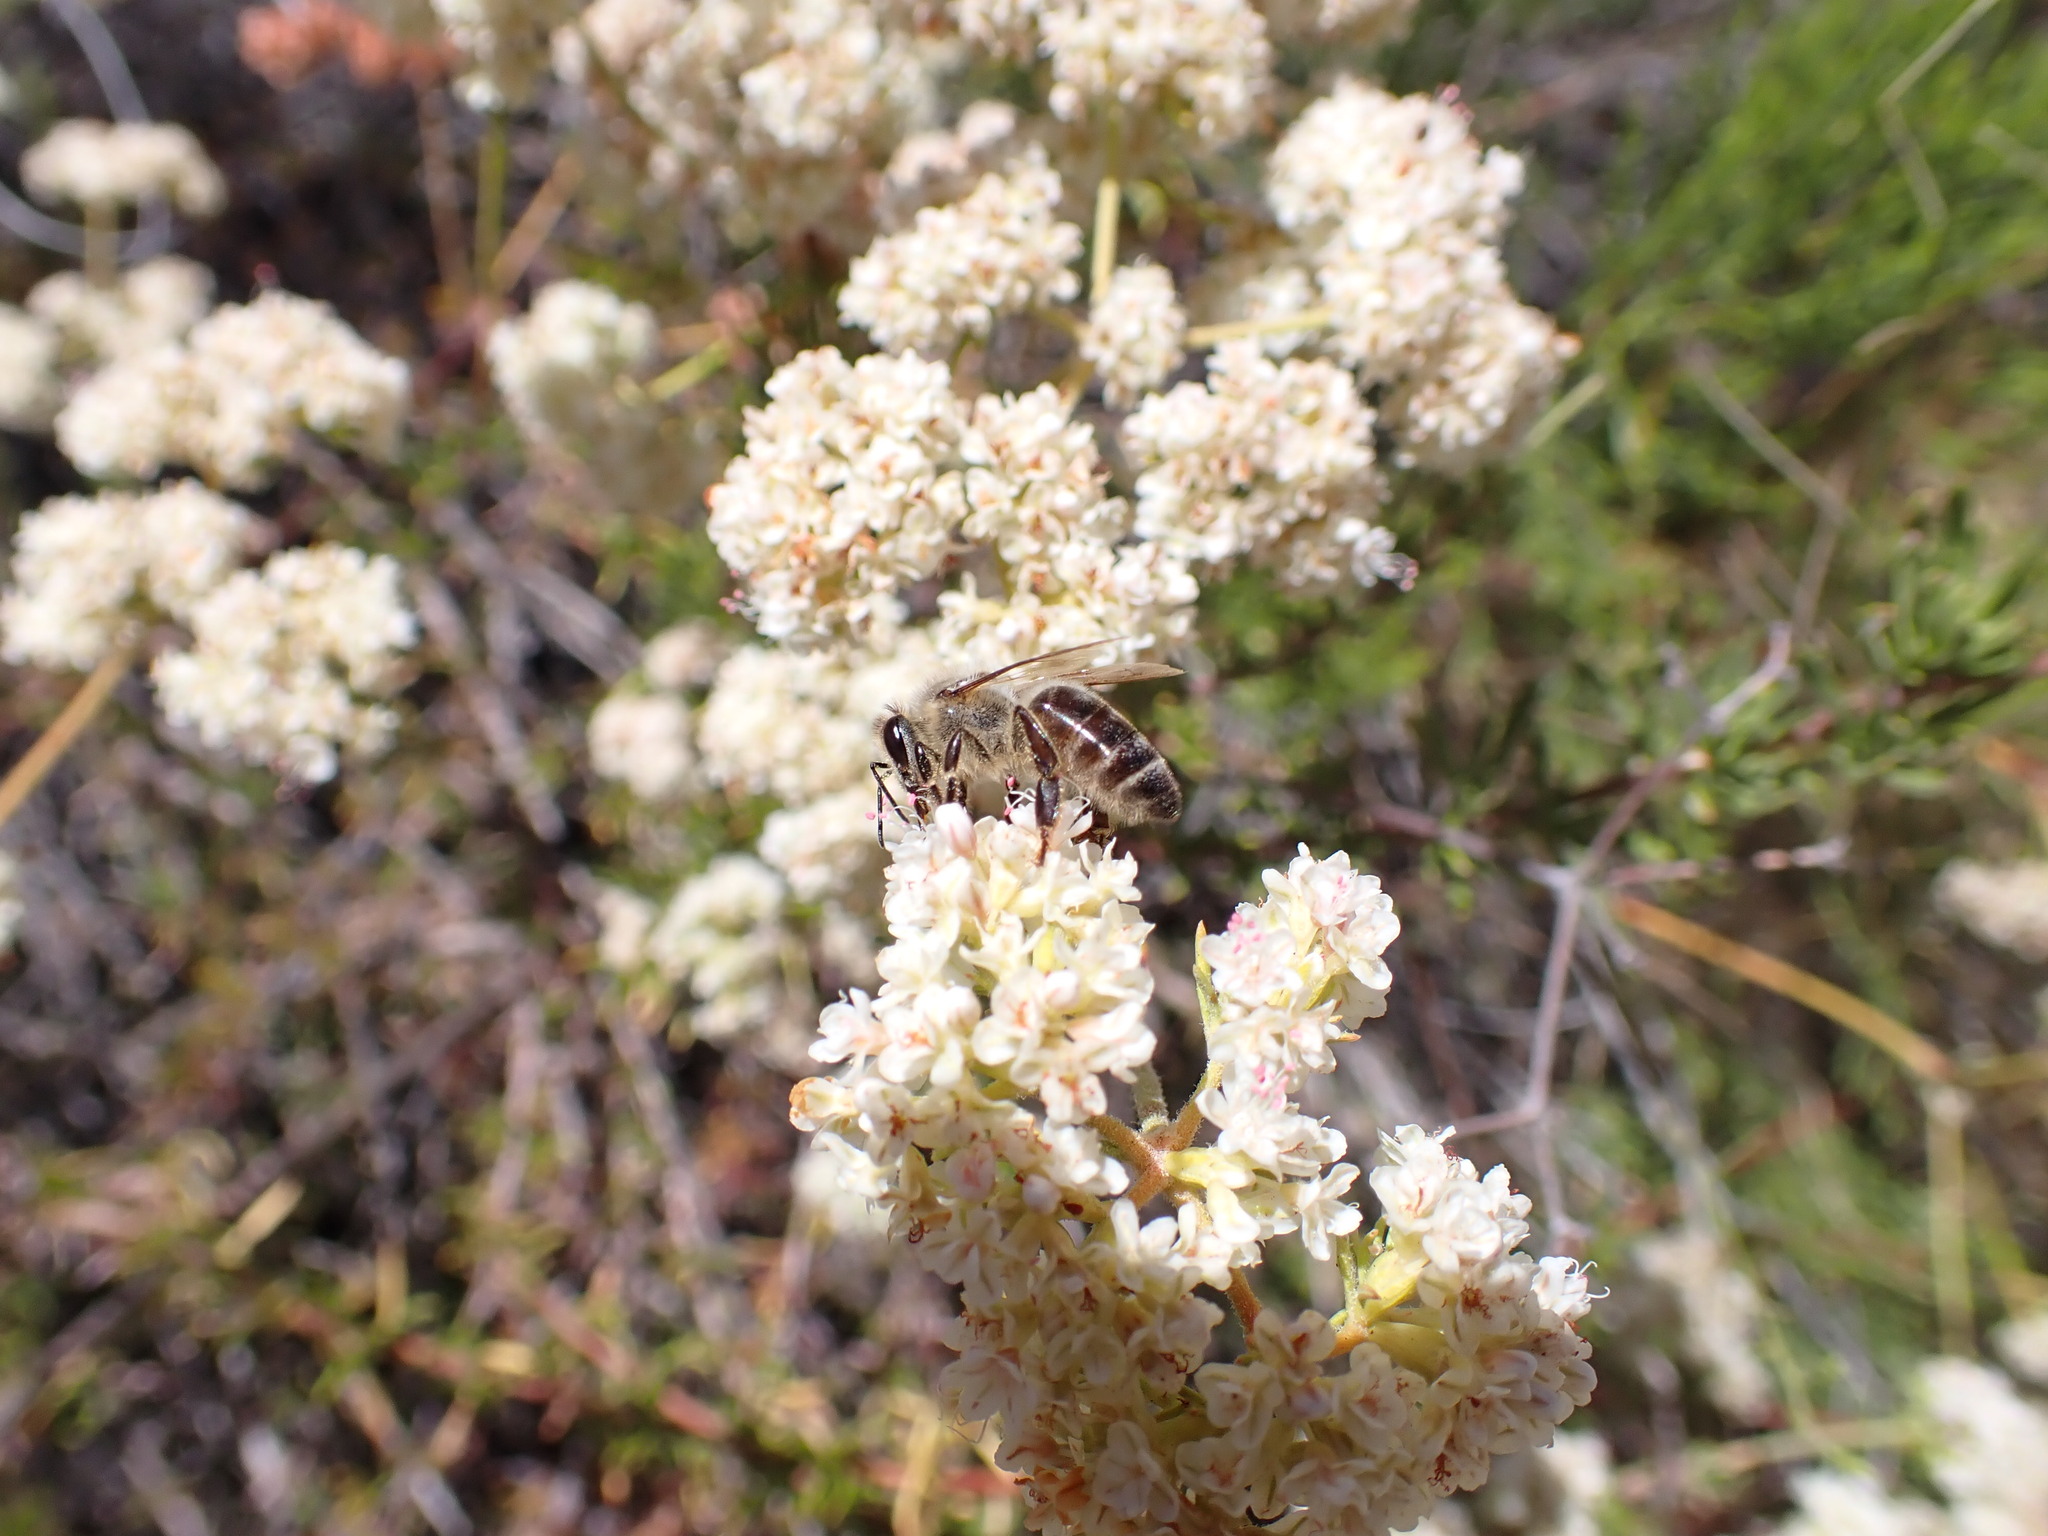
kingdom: Animalia
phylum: Arthropoda
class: Insecta
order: Hymenoptera
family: Apidae
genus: Apis
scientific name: Apis mellifera
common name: Honey bee
